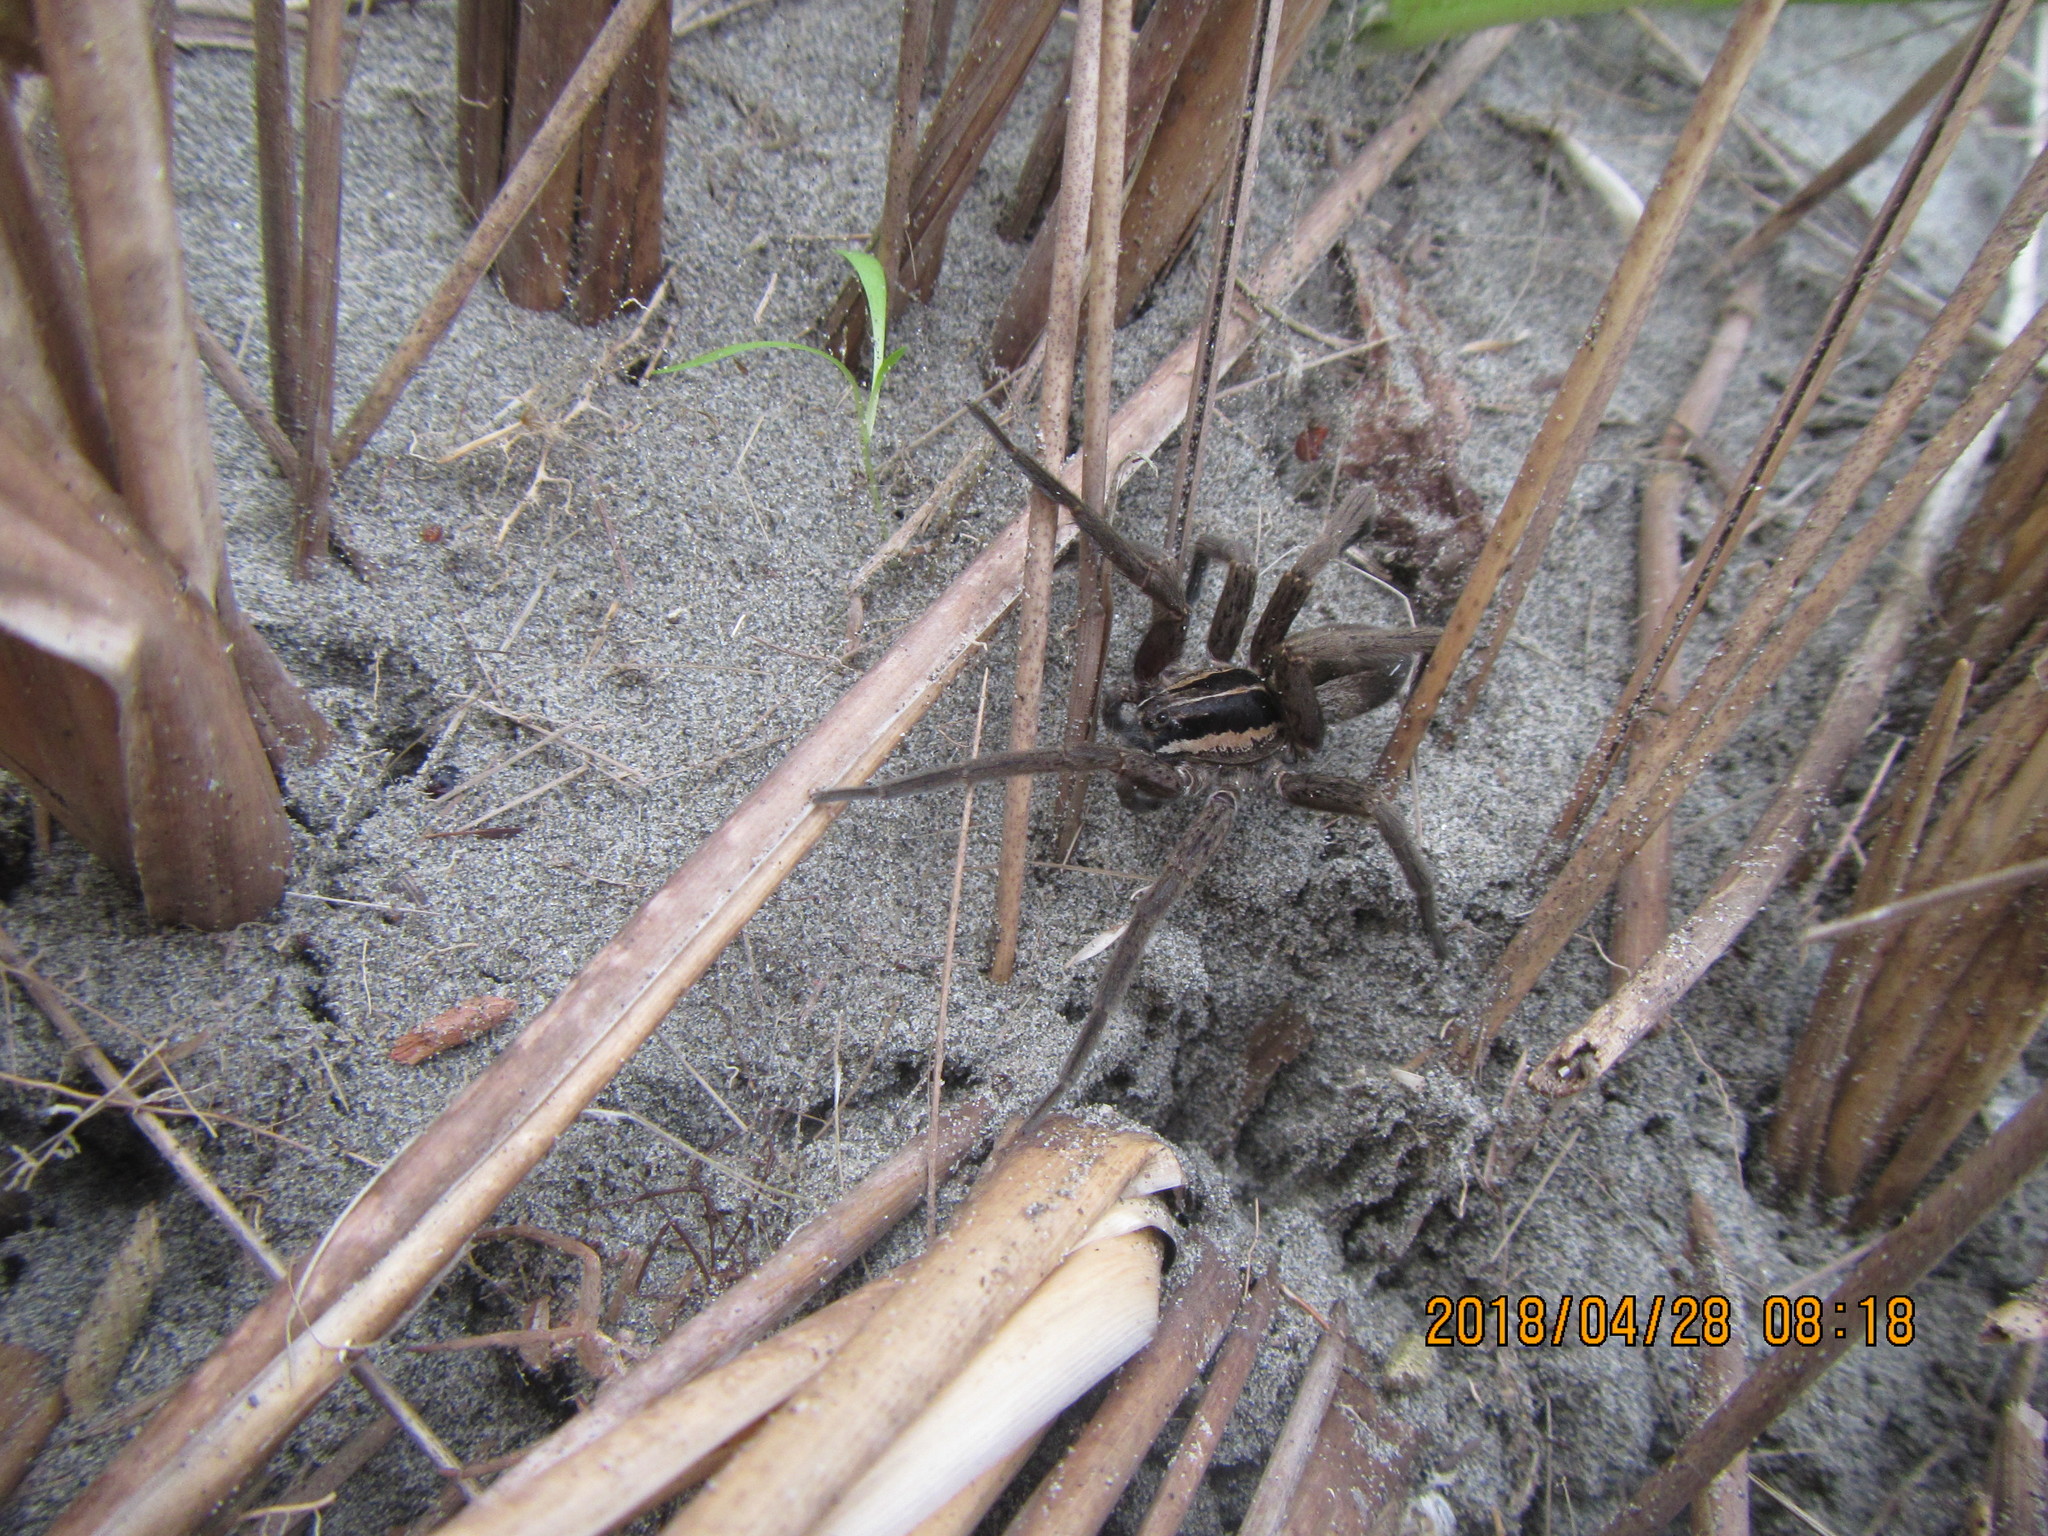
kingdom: Animalia
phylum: Arthropoda
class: Arachnida
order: Araneae
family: Pisauridae
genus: Dolomedes
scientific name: Dolomedes minor
